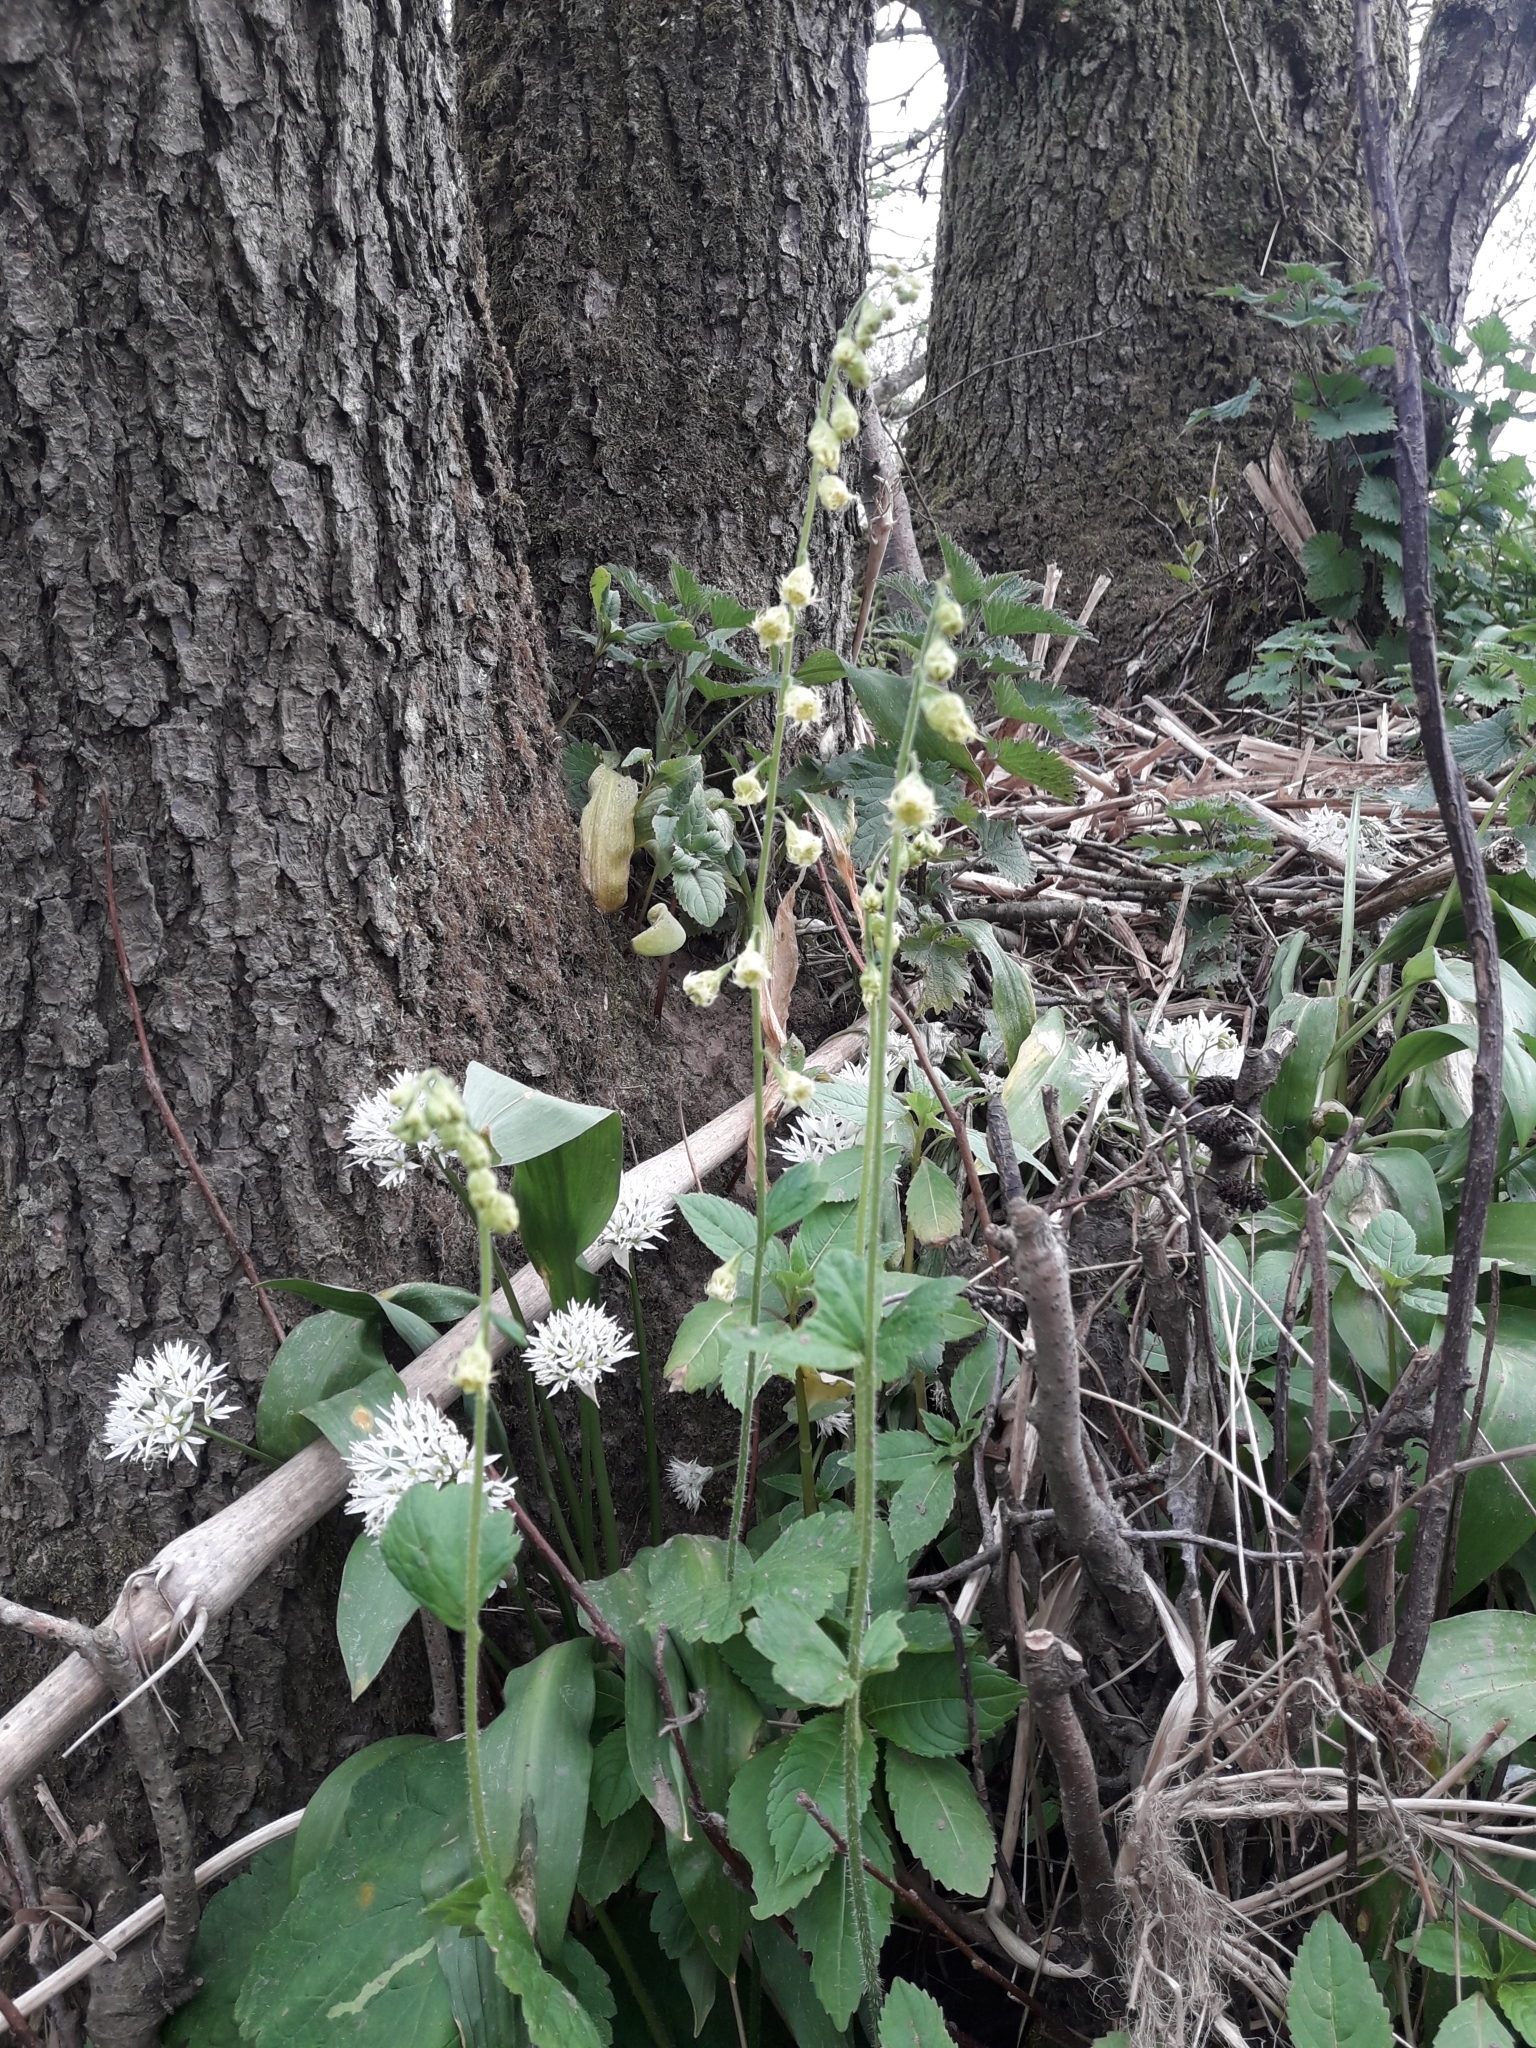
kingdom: Plantae
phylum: Tracheophyta
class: Magnoliopsida
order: Saxifragales
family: Saxifragaceae
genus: Tellima
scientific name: Tellima grandiflora
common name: Fringecups
